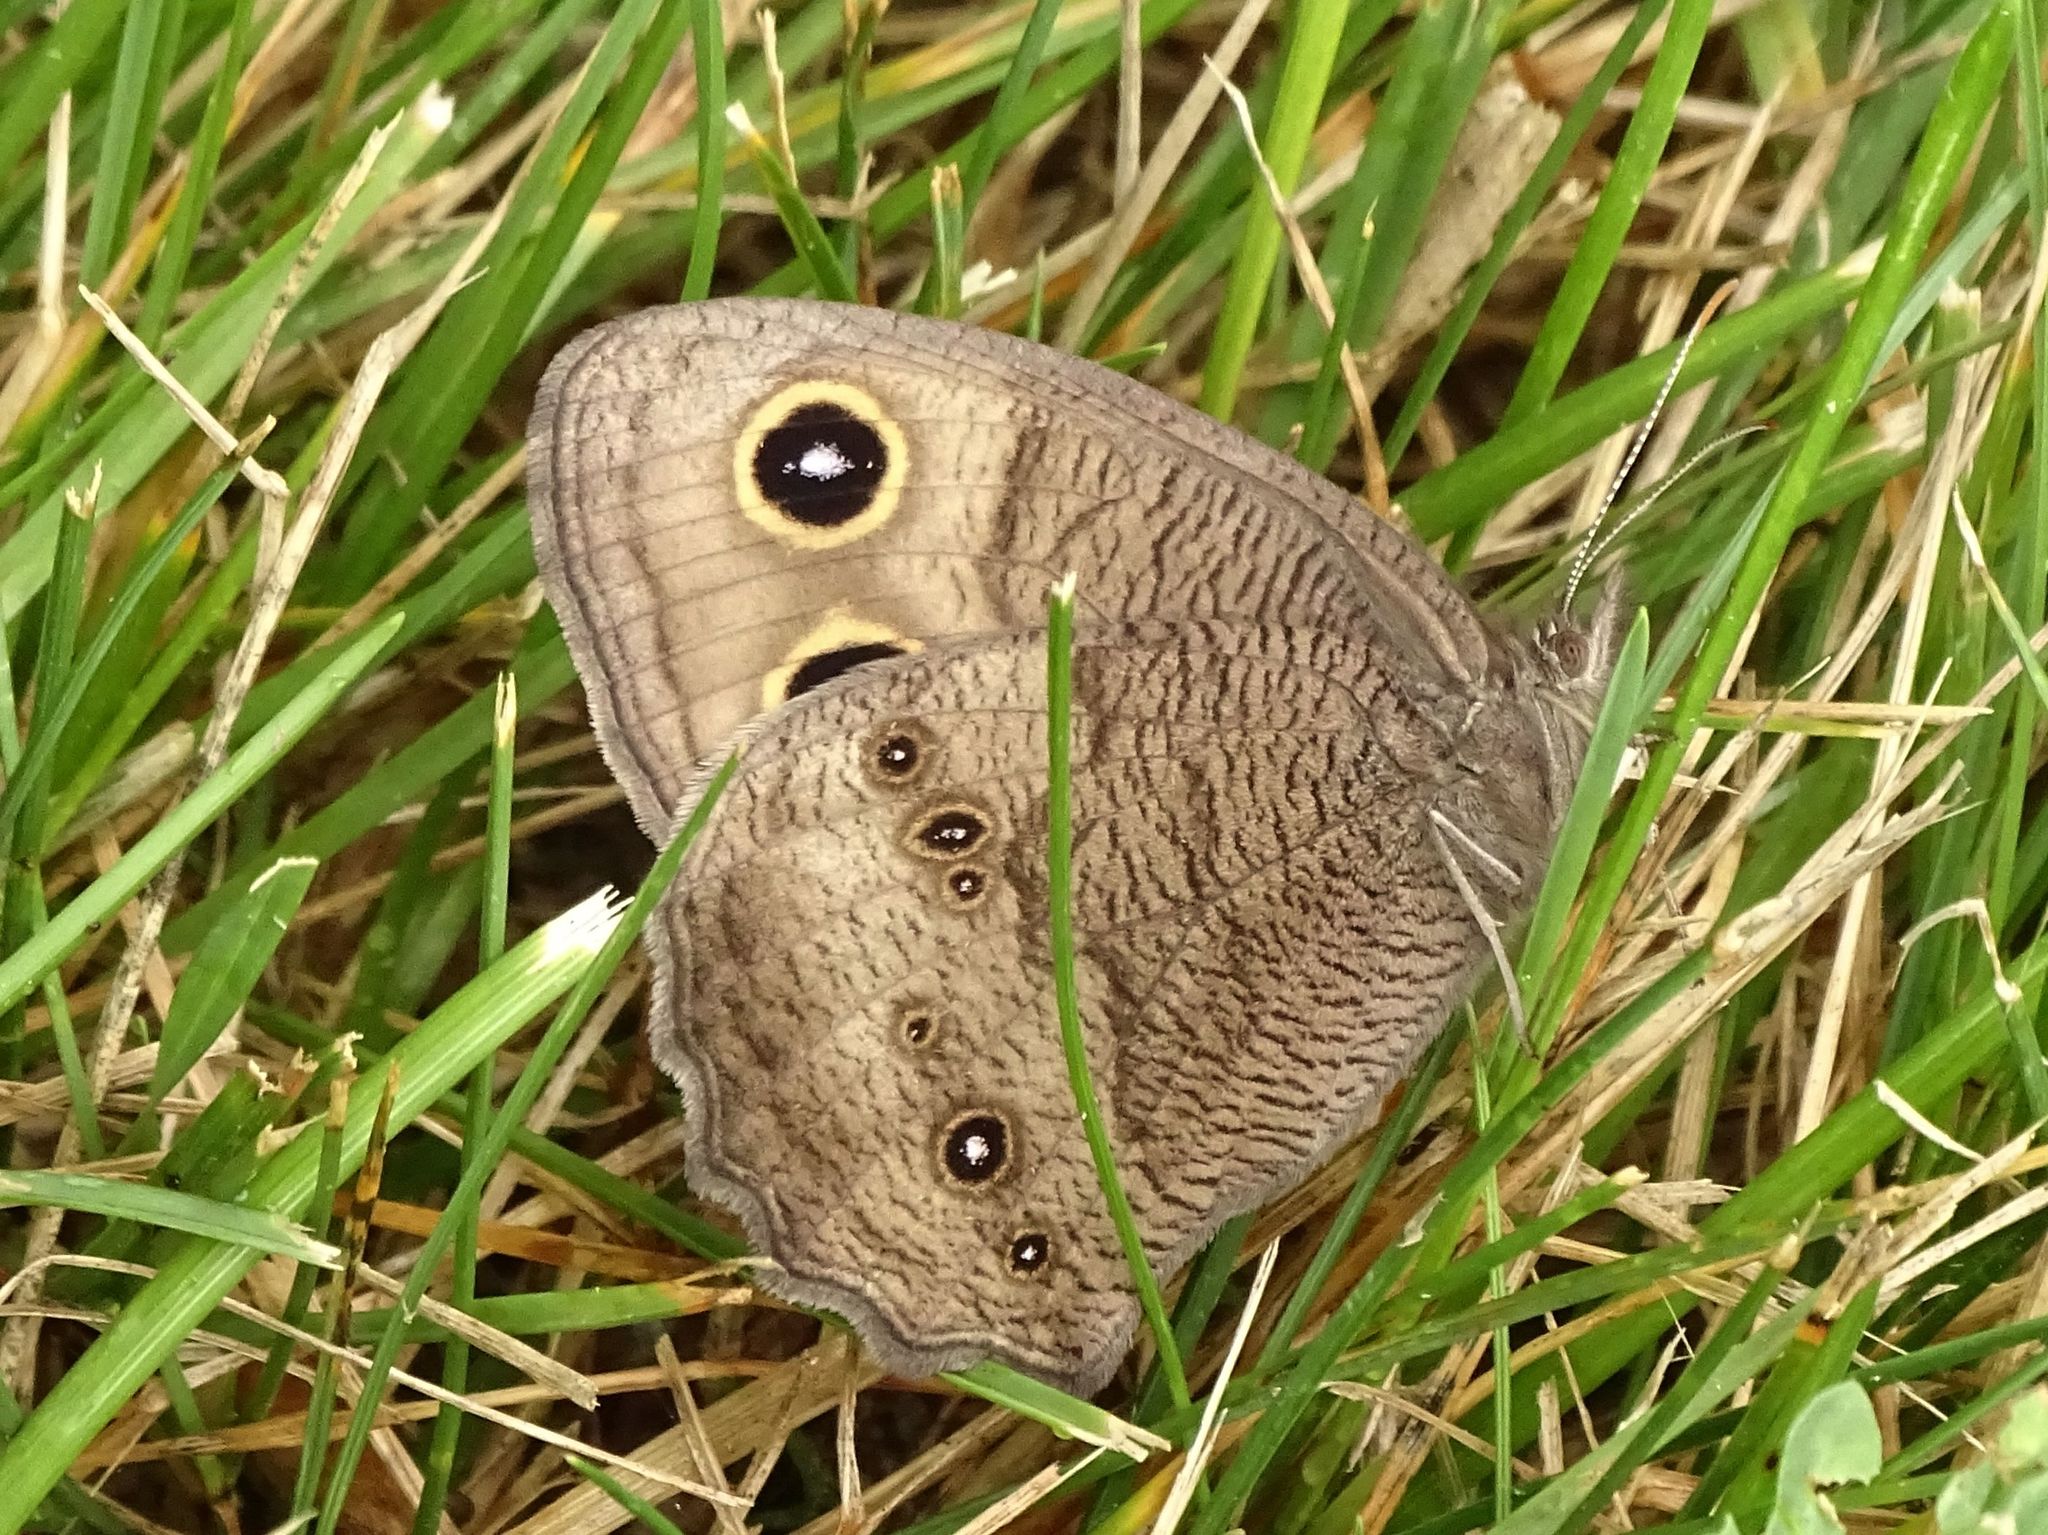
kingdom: Animalia
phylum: Arthropoda
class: Insecta
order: Lepidoptera
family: Nymphalidae
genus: Cercyonis
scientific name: Cercyonis pegala
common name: Common wood-nymph
